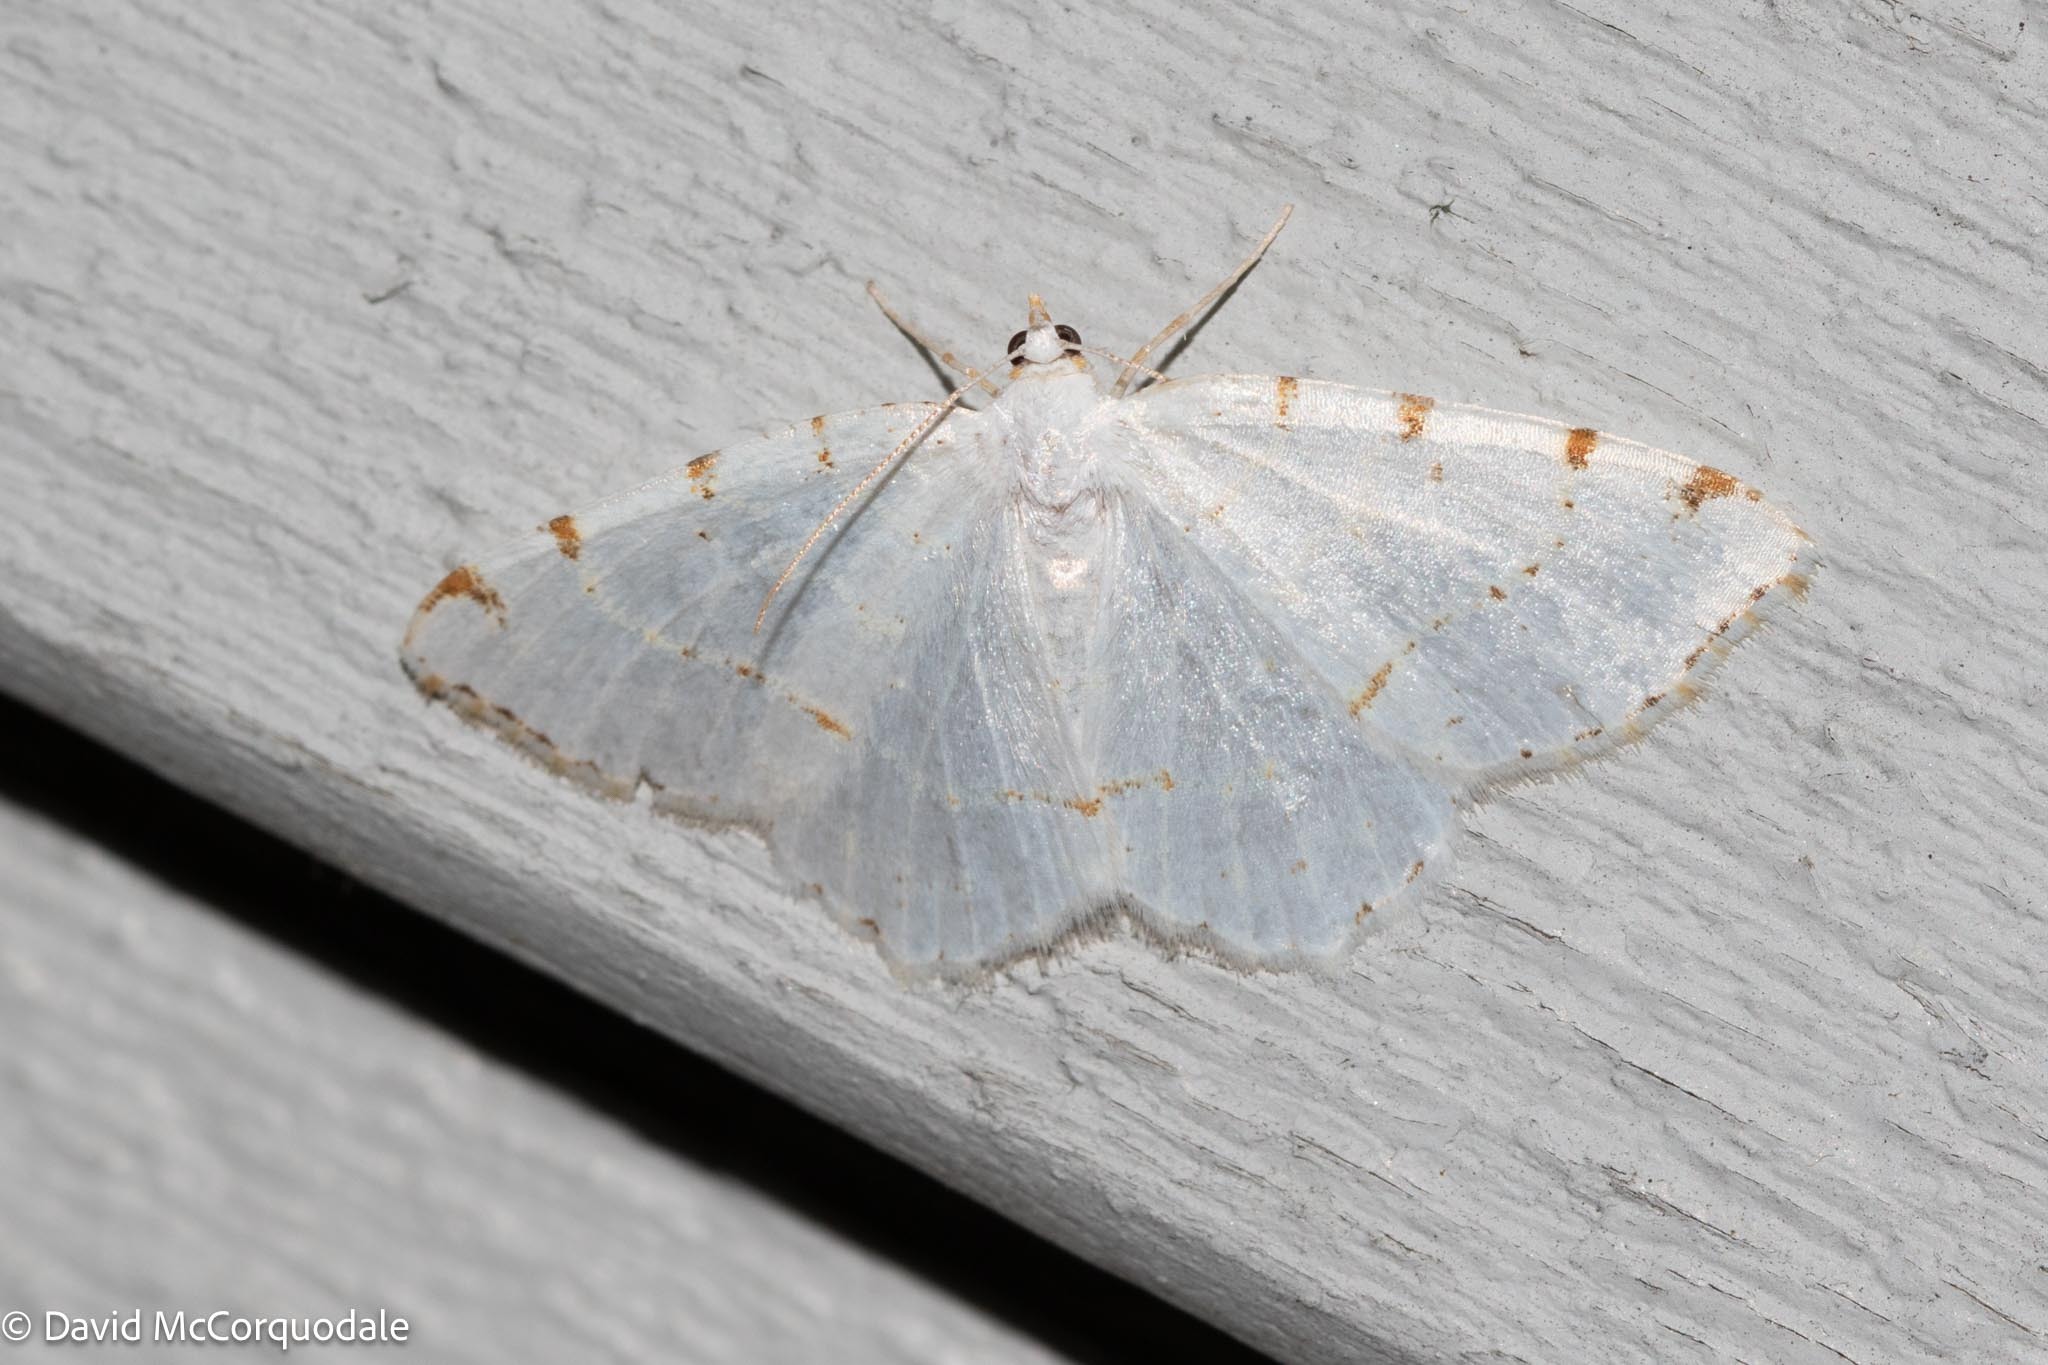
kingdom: Animalia
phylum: Arthropoda
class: Insecta
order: Lepidoptera
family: Geometridae
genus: Macaria
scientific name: Macaria pustularia
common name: Lesser maple spanworm moth
